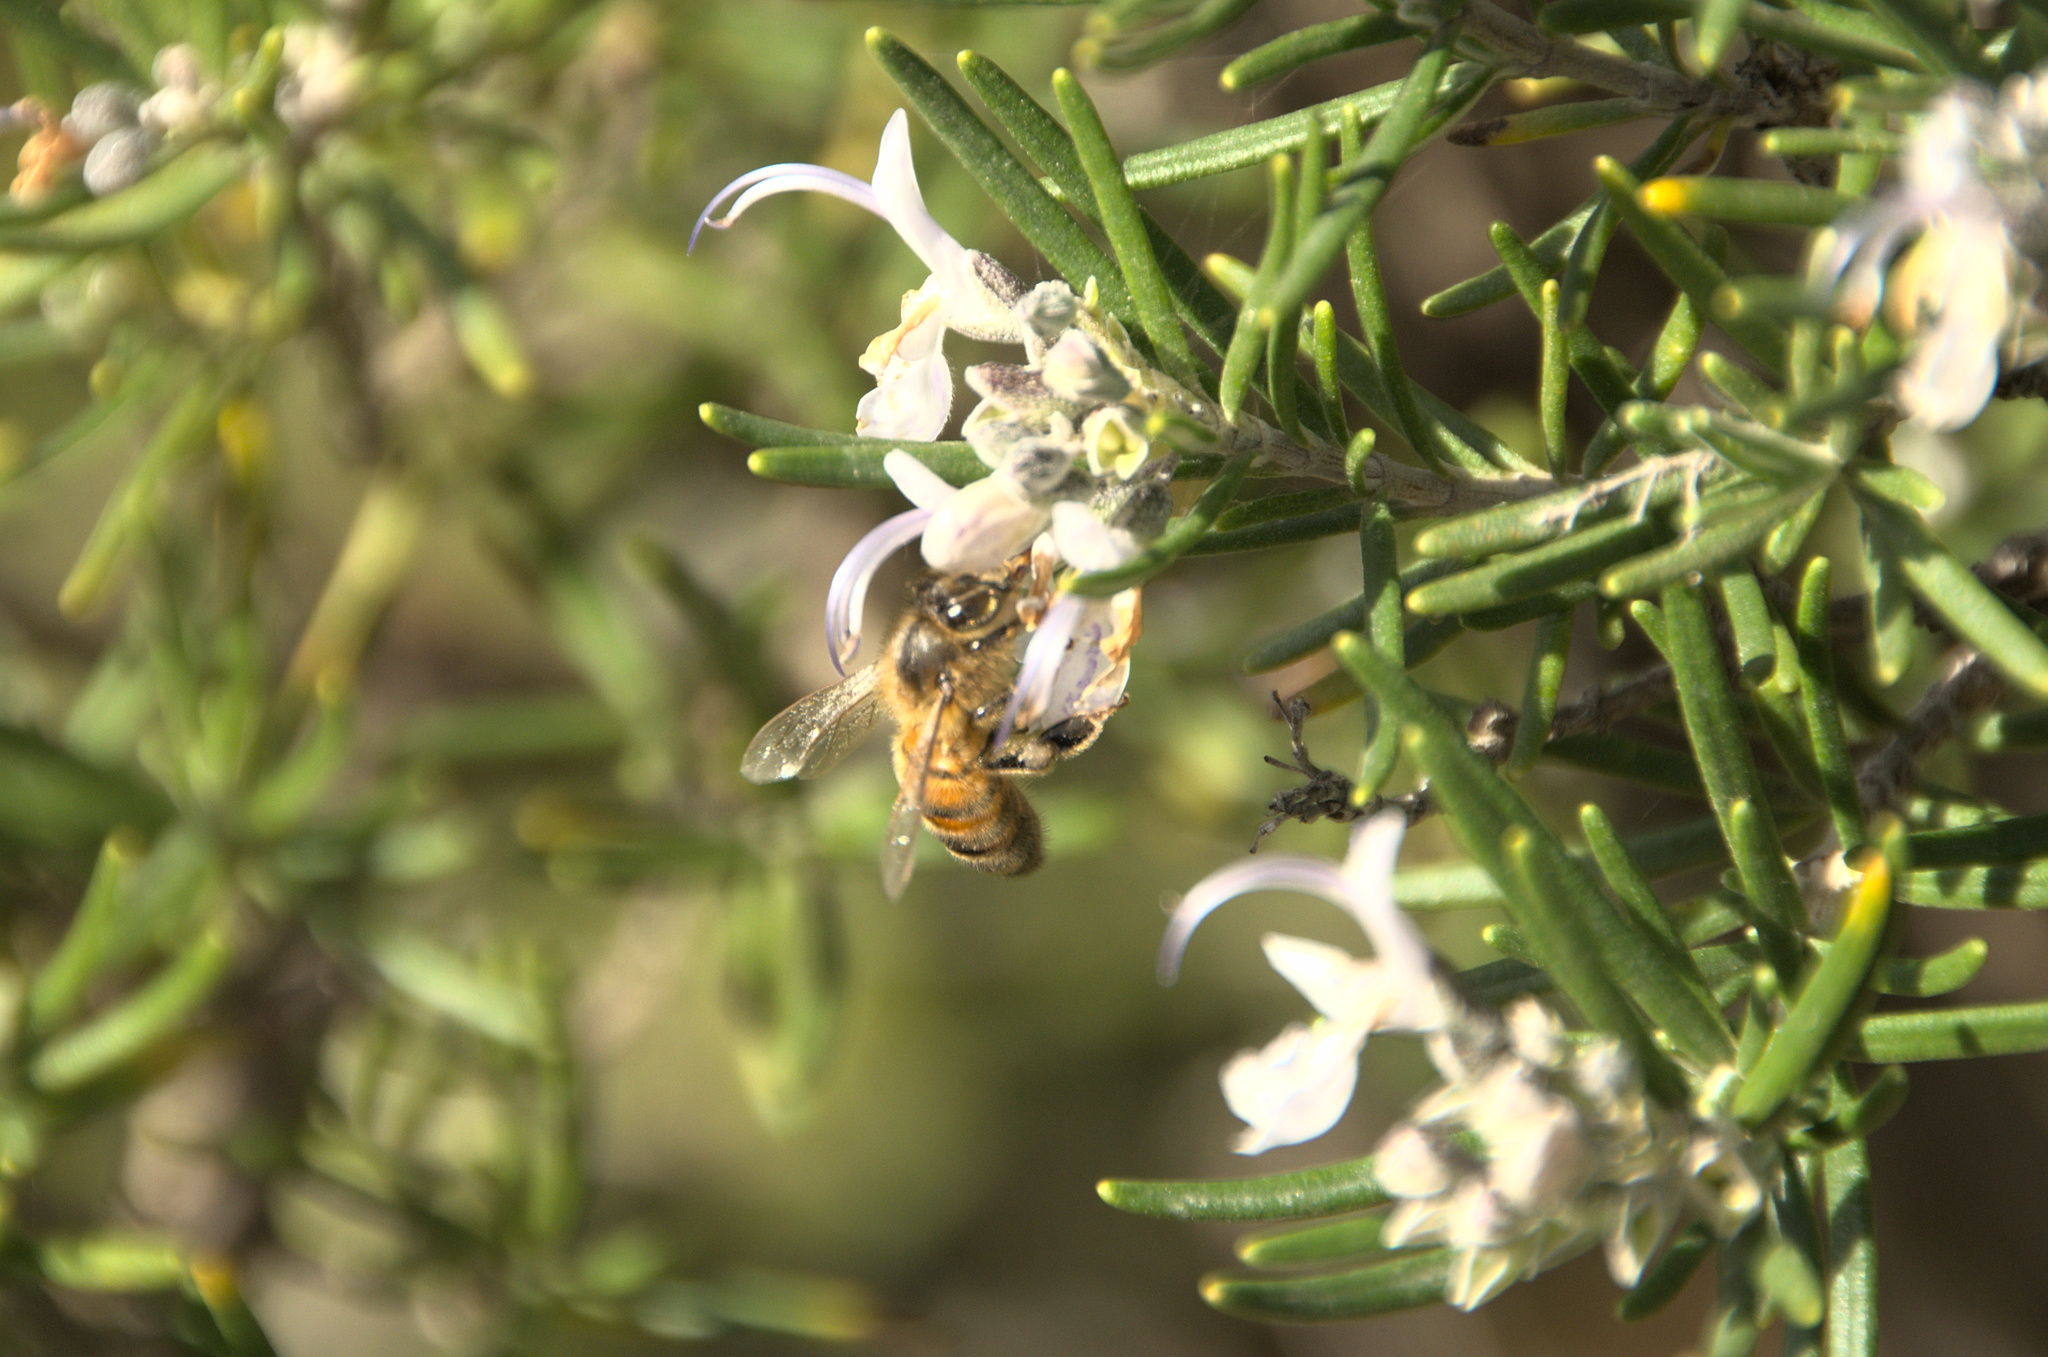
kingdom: Animalia
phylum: Arthropoda
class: Insecta
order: Hymenoptera
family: Apidae
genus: Apis
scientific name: Apis mellifera
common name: Honey bee
